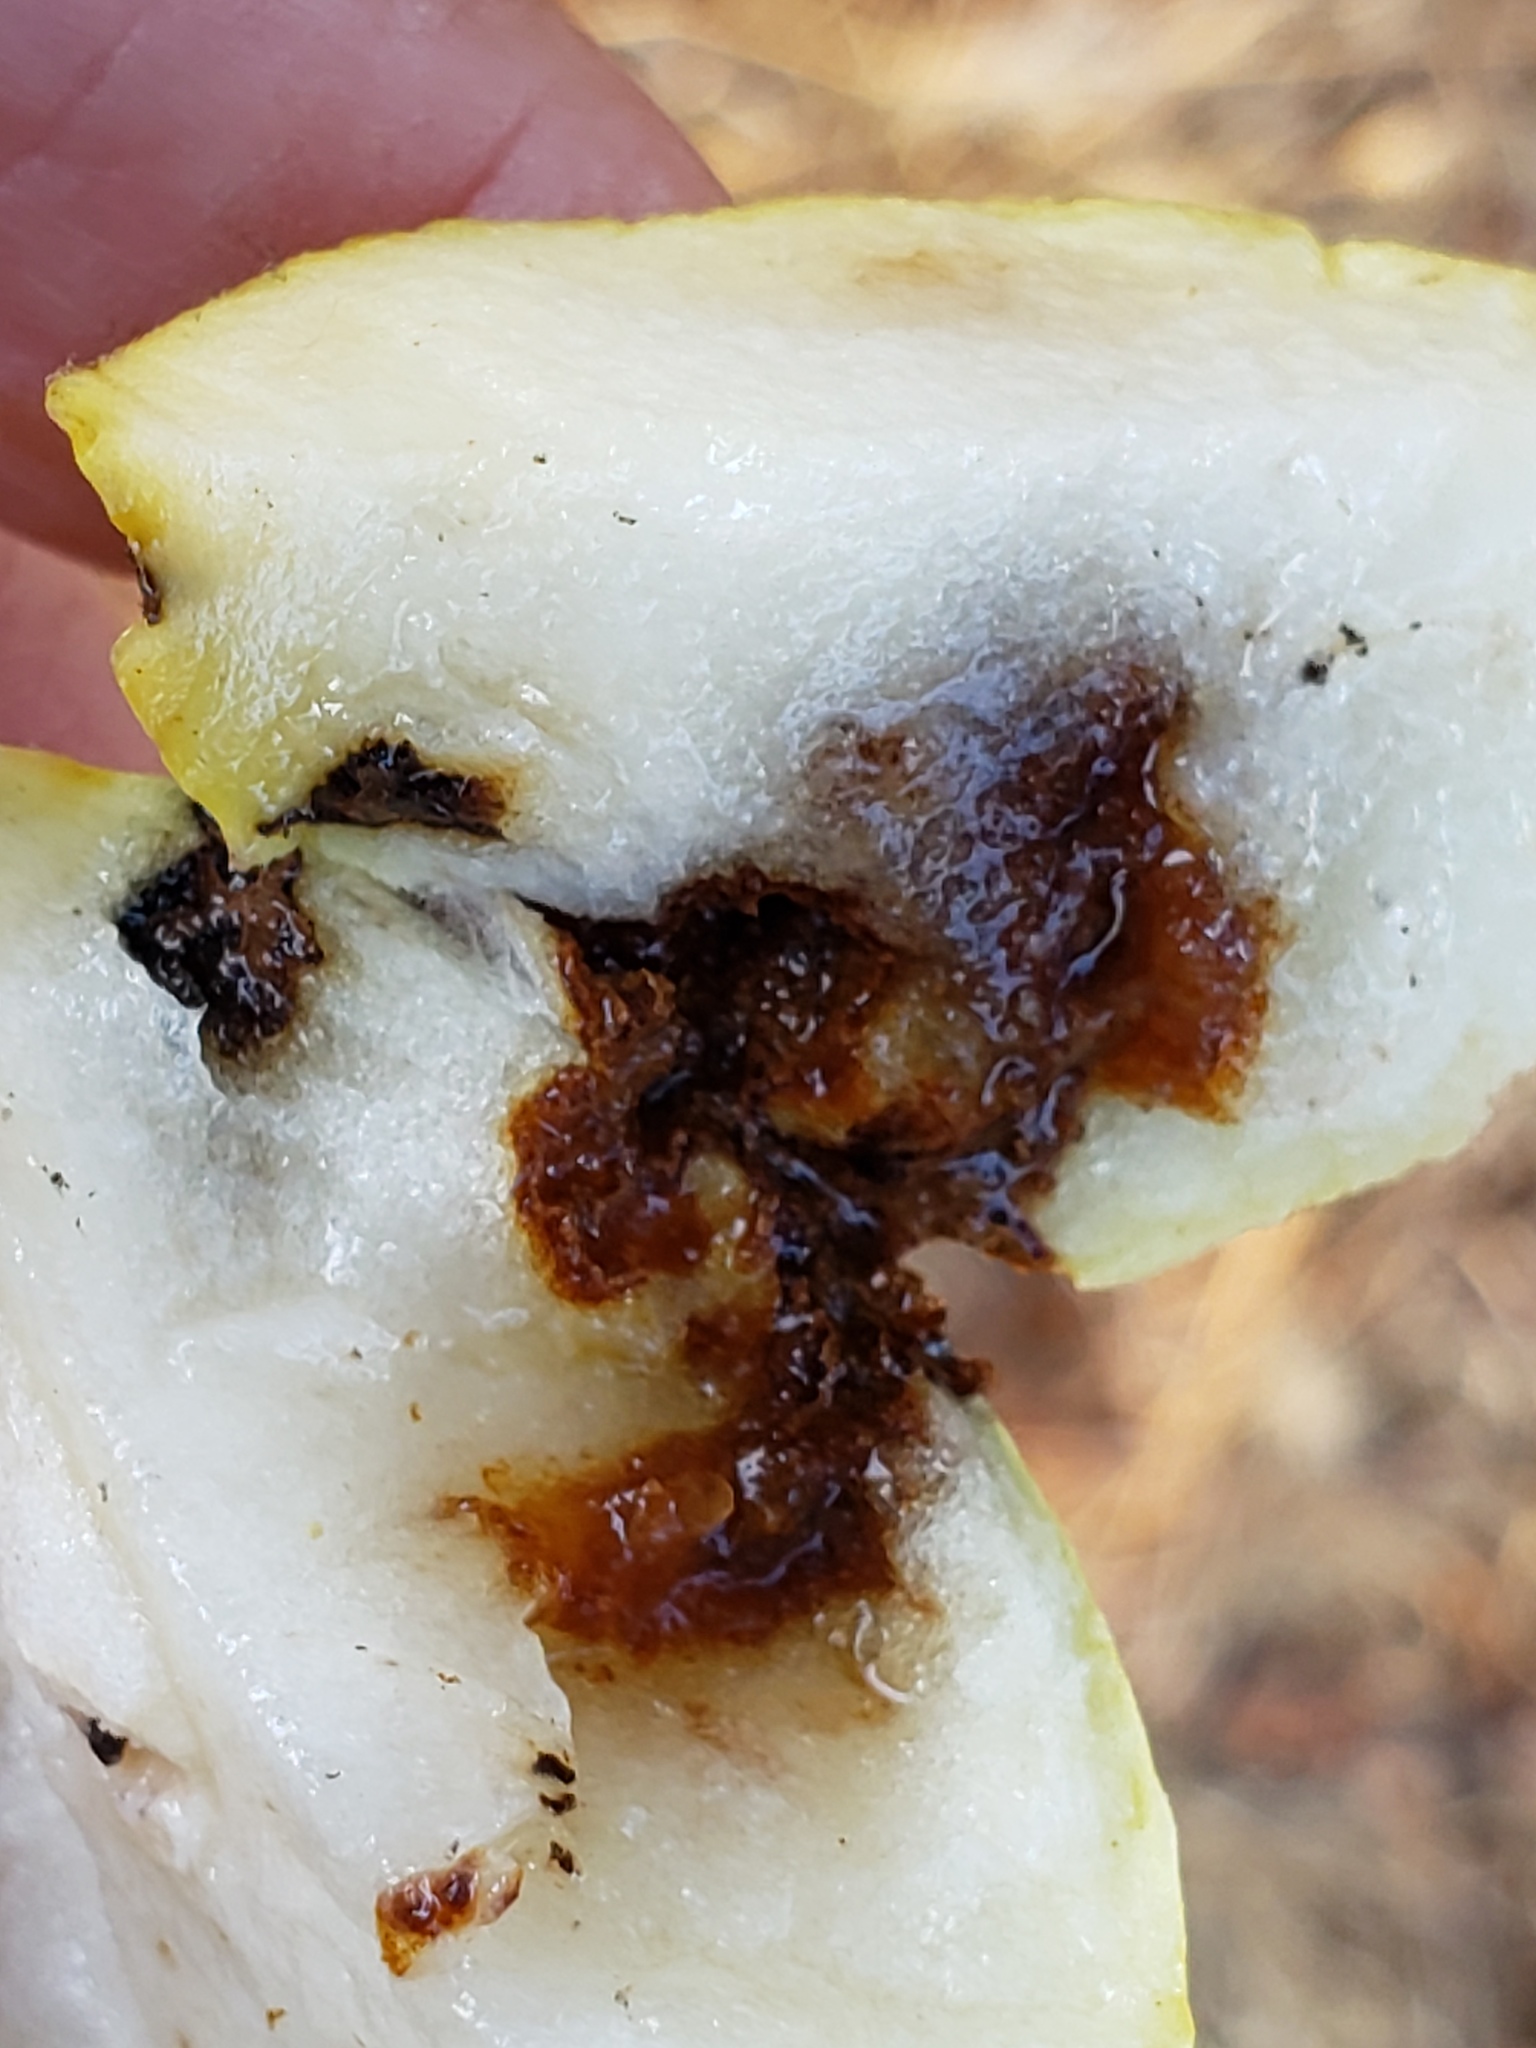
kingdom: Animalia
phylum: Arthropoda
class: Insecta
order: Hymenoptera
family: Cynipidae
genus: Andricus
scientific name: Andricus quercuscalifornicus
